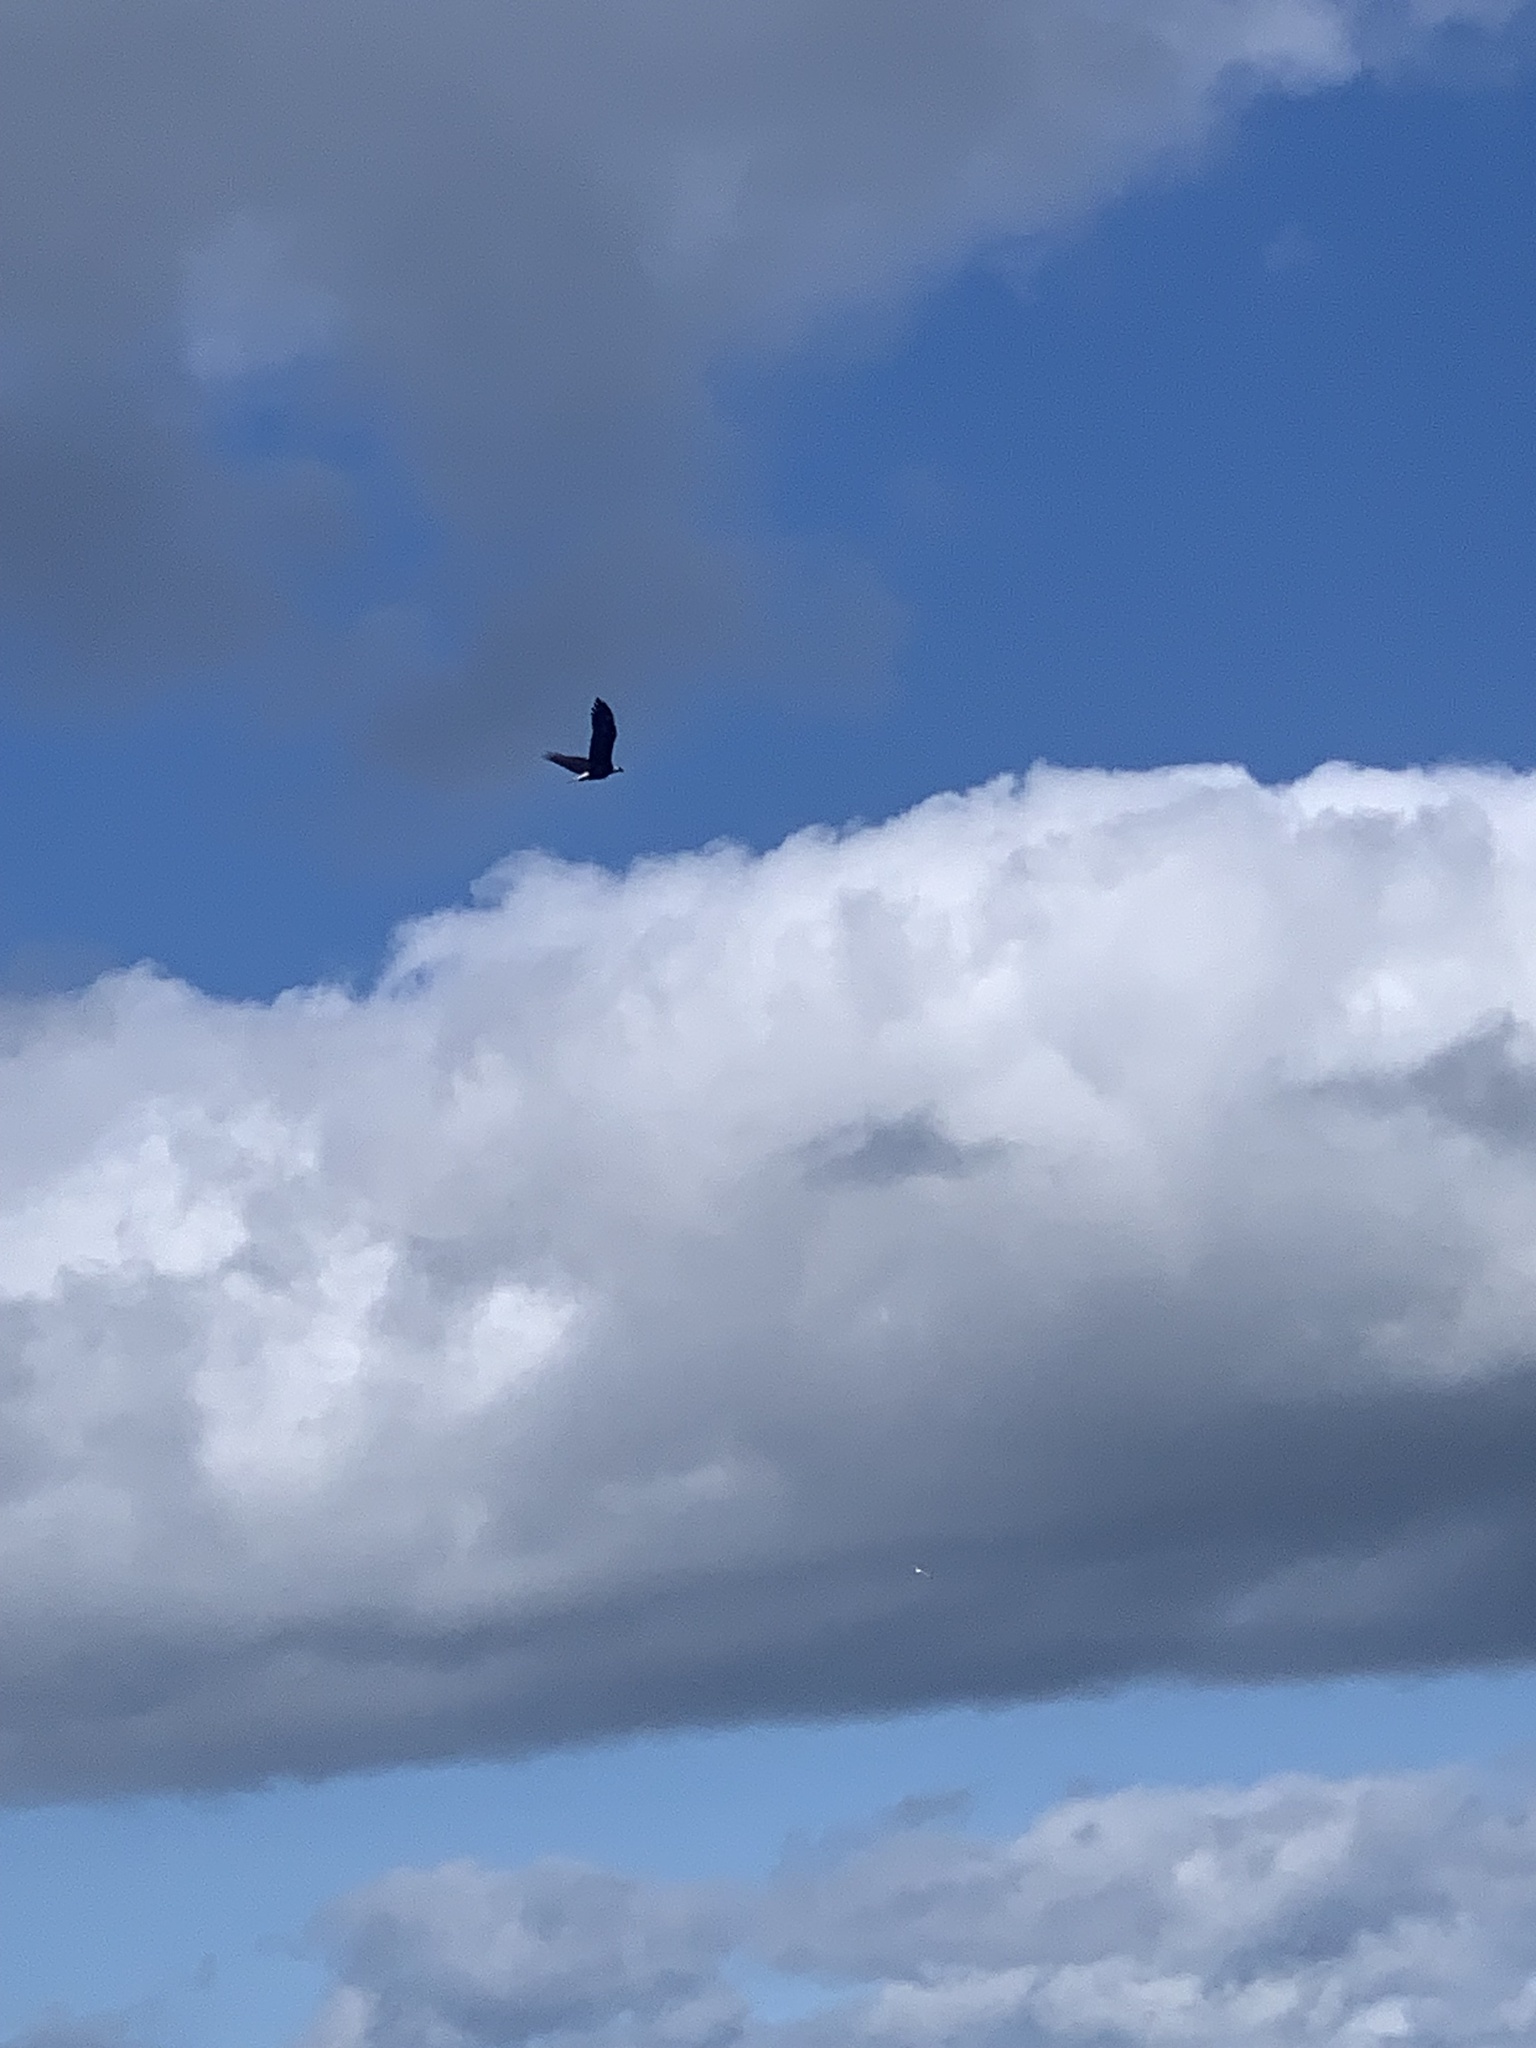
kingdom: Animalia
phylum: Chordata
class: Aves
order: Accipitriformes
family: Accipitridae
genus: Haliaeetus
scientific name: Haliaeetus leucocephalus
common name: Bald eagle
